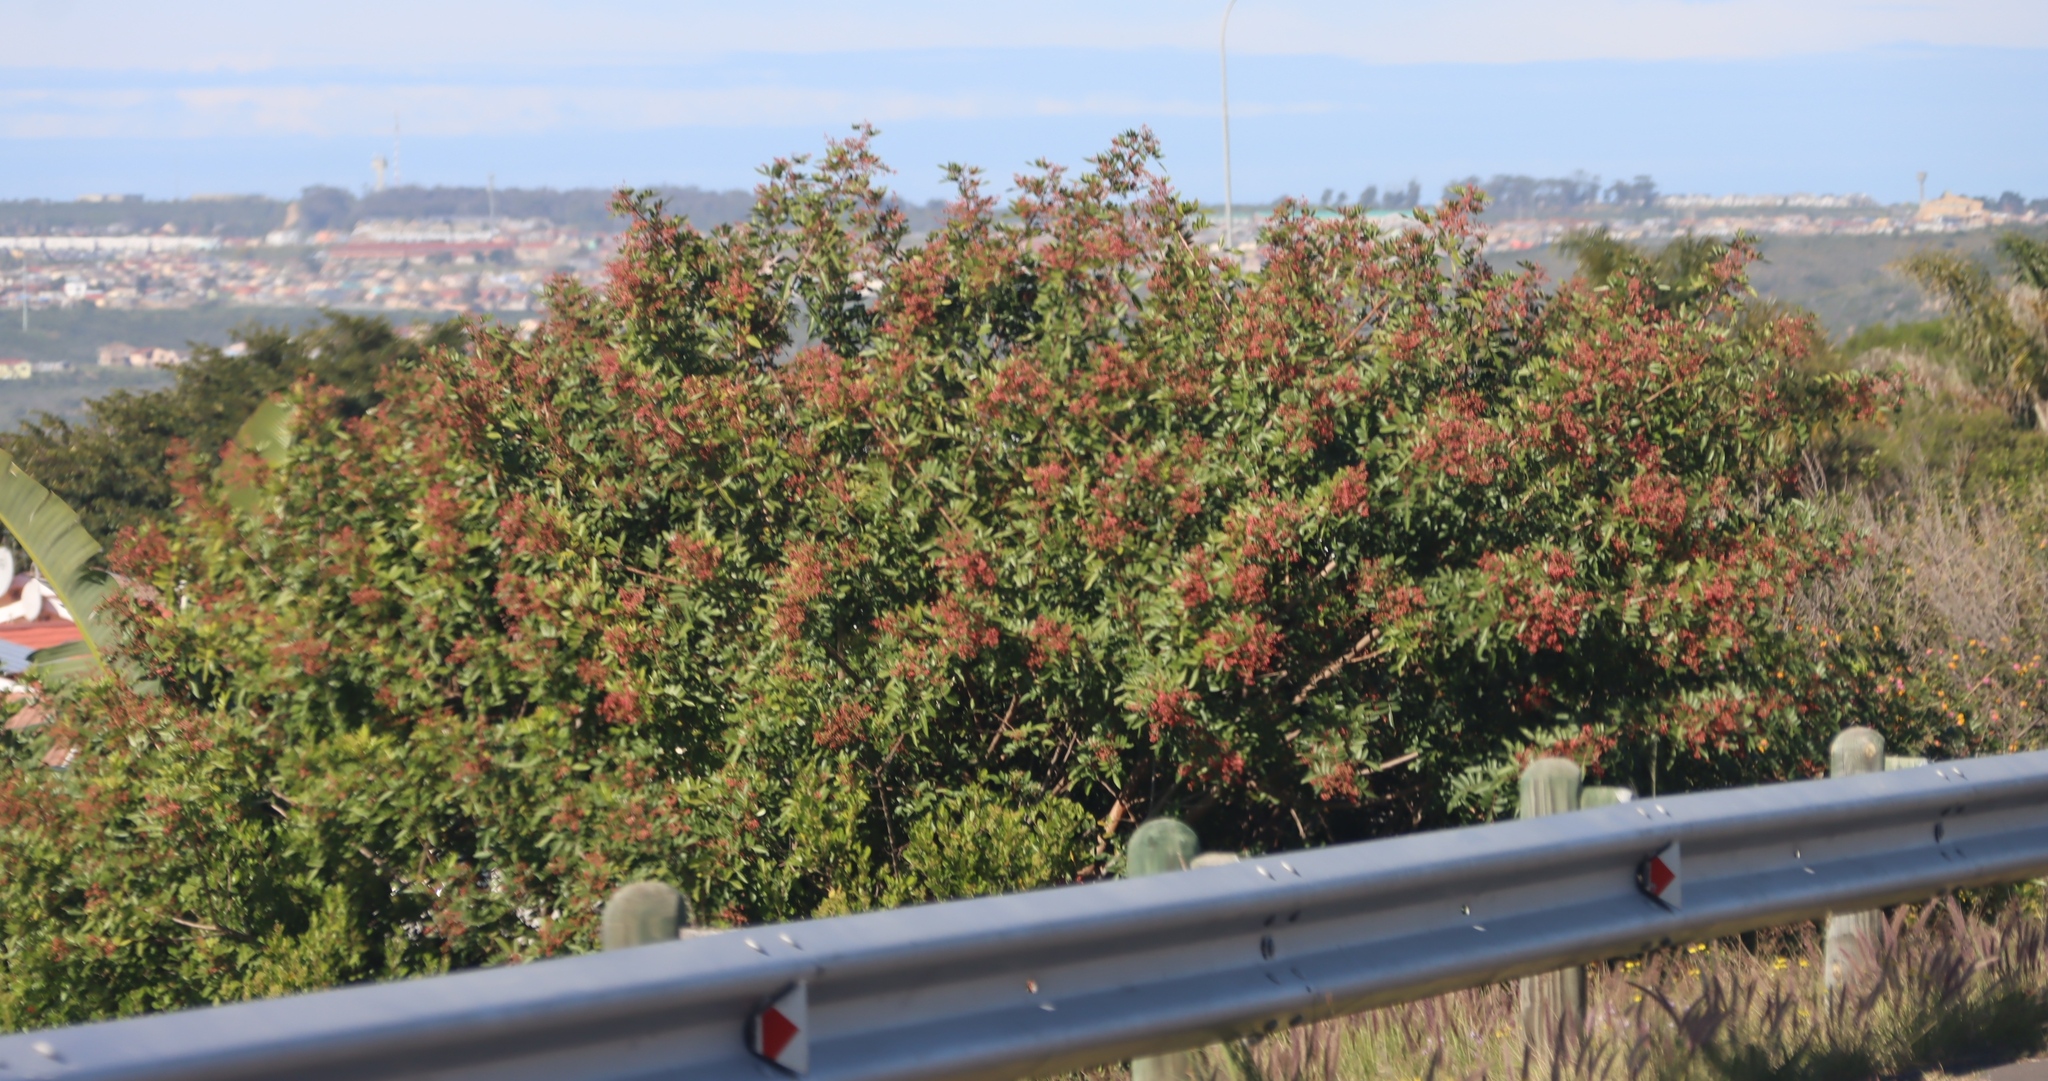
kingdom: Plantae
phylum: Tracheophyta
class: Magnoliopsida
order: Sapindales
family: Anacardiaceae
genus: Schinus
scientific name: Schinus terebinthifolia
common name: Brazilian peppertree
